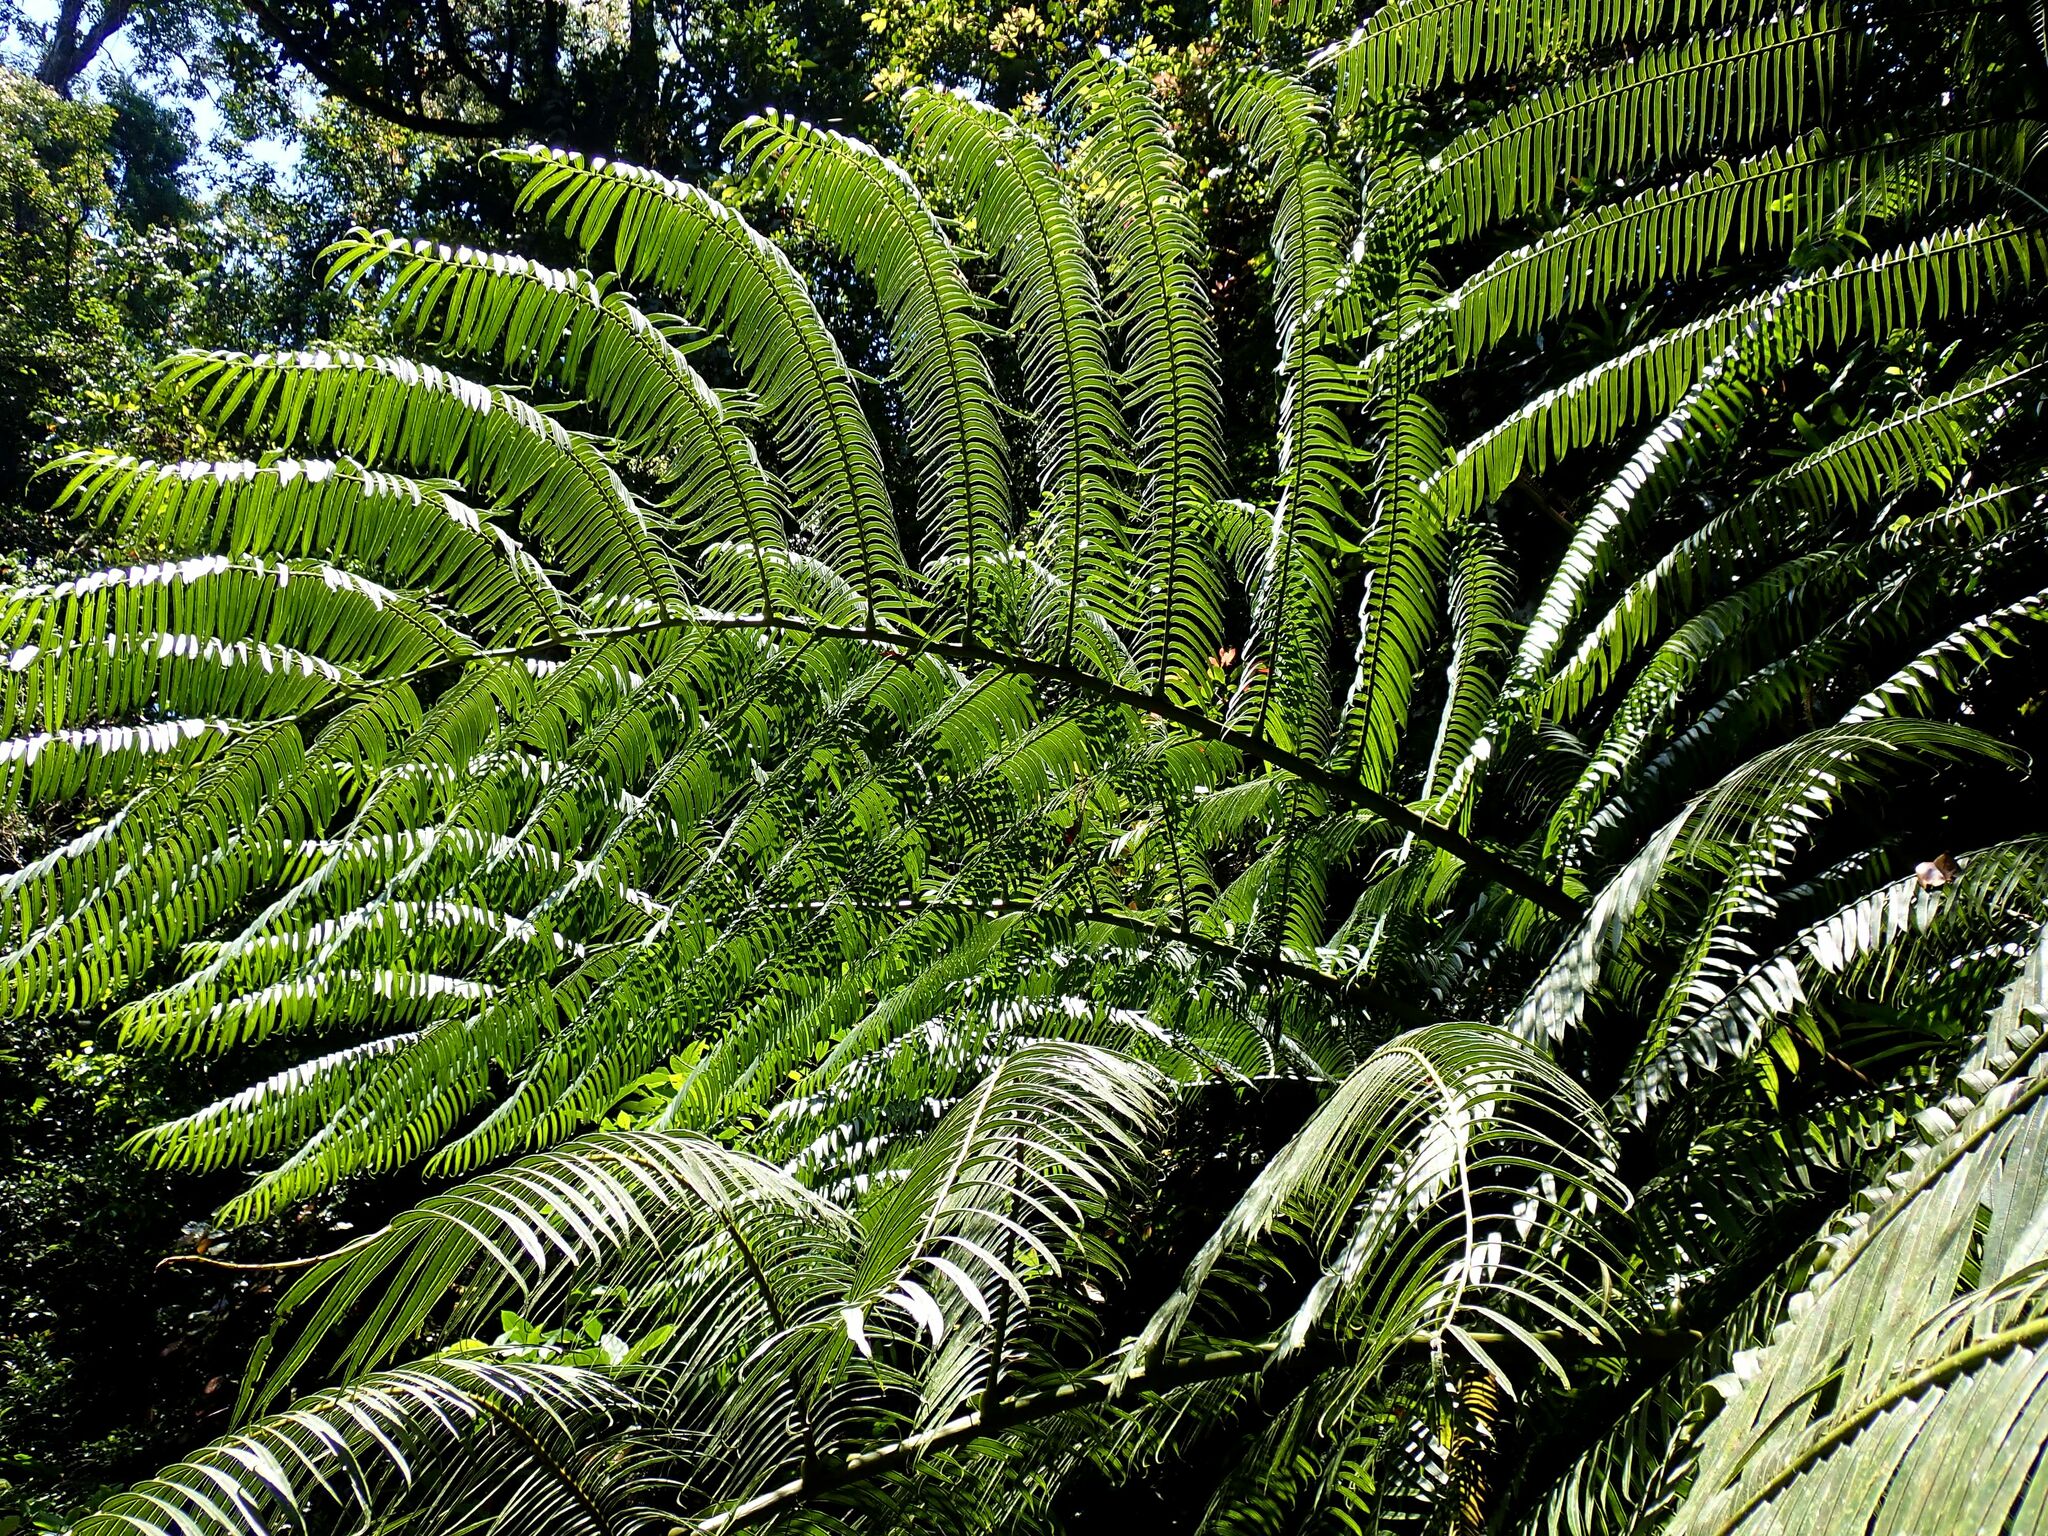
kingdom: Plantae
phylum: Tracheophyta
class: Polypodiopsida
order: Marattiales
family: Marattiaceae
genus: Angiopteris
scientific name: Angiopteris evecta
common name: Mule's-foot fern
